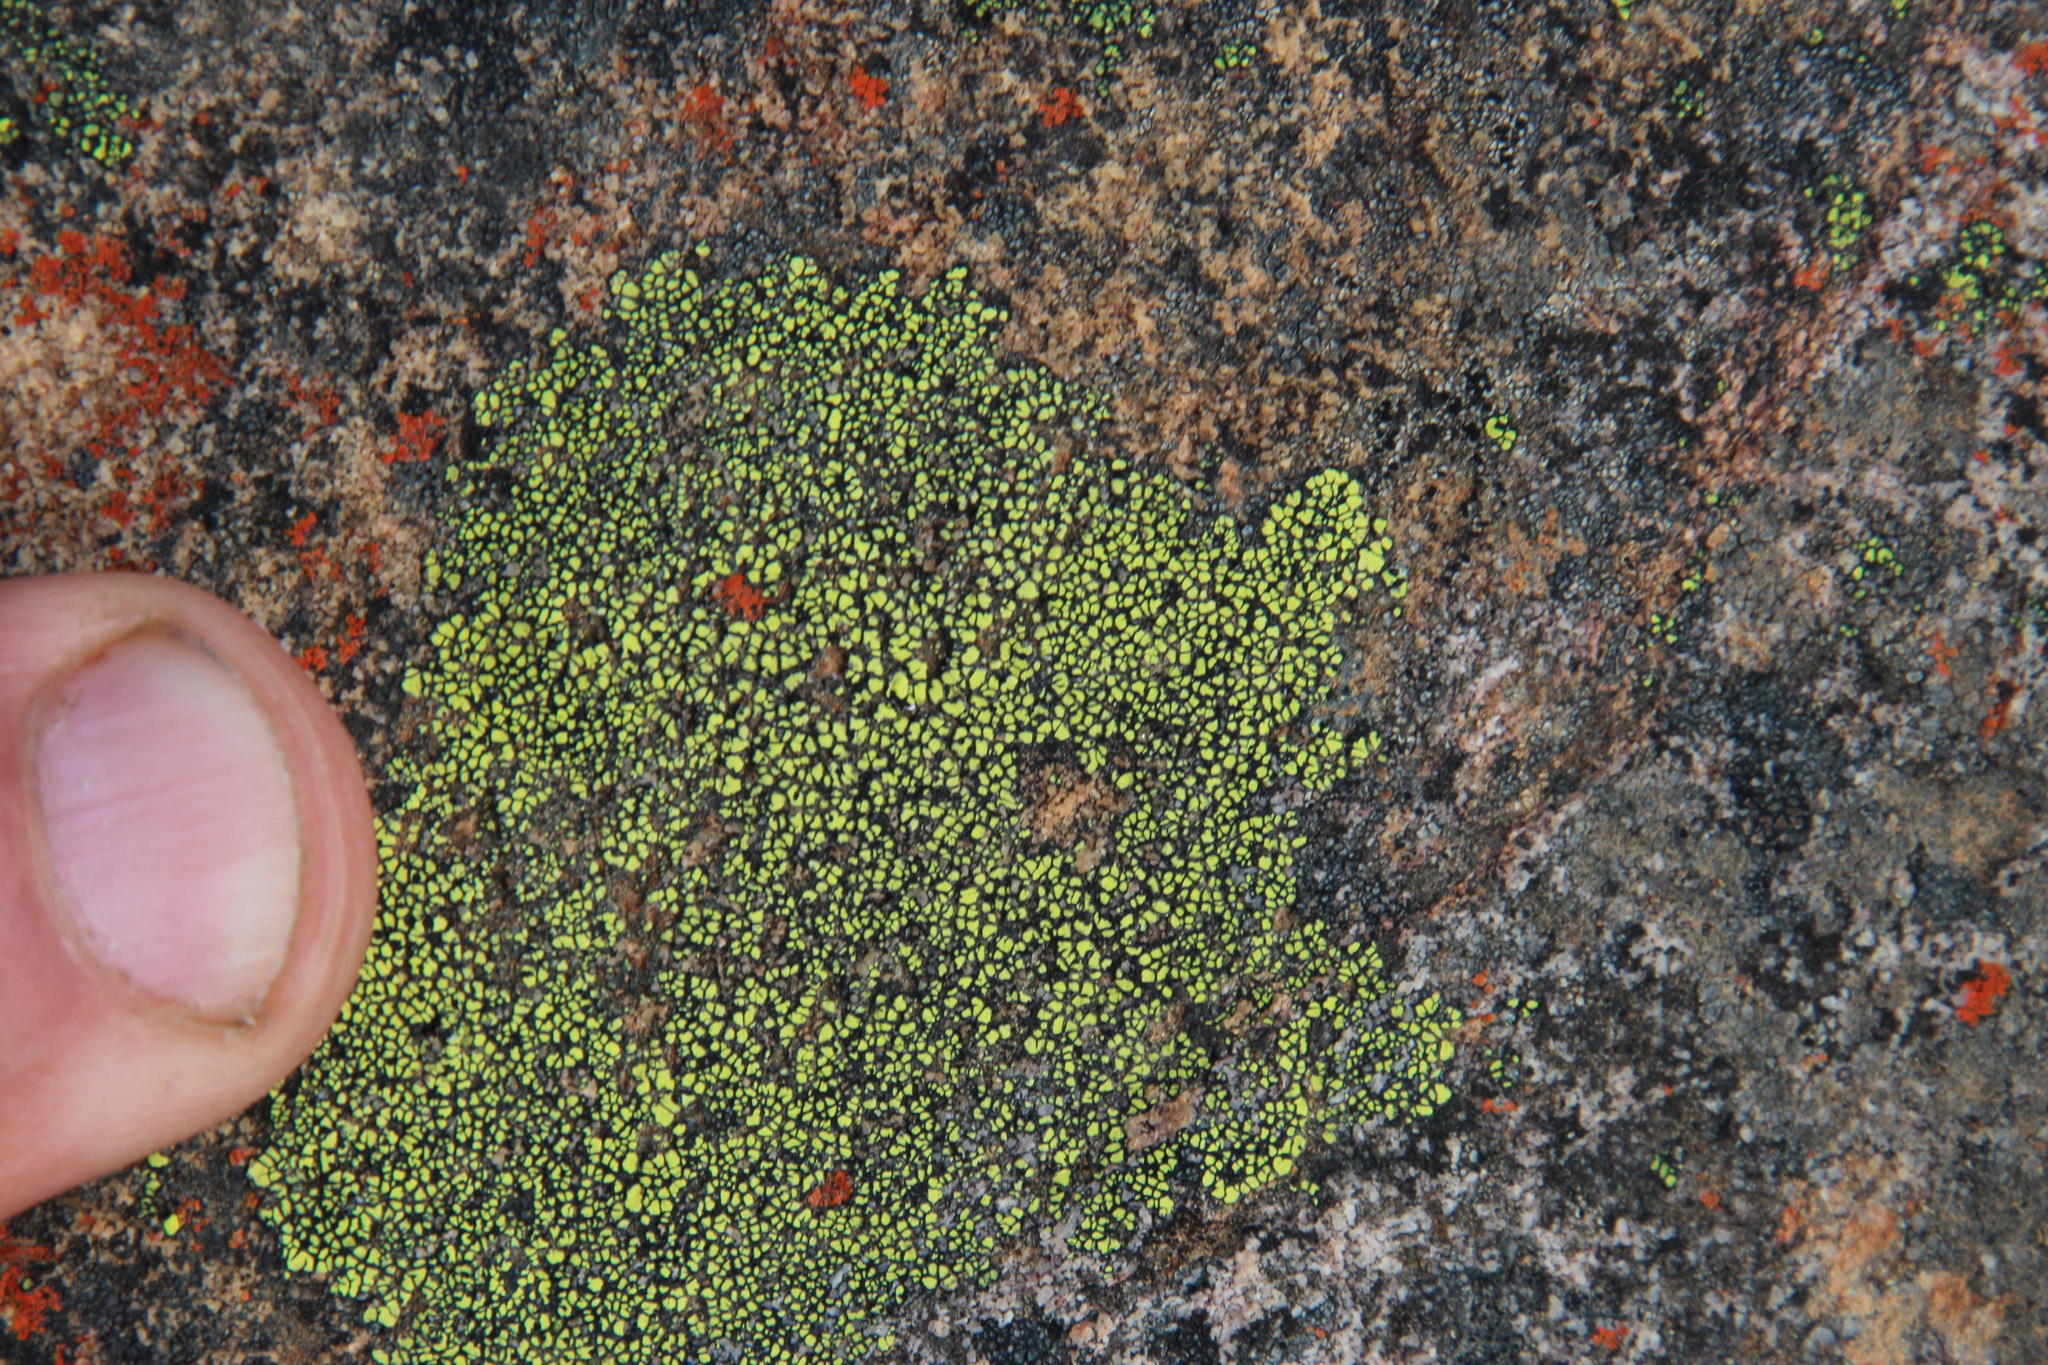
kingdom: Fungi
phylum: Ascomycota
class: Lecanoromycetes
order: Rhizocarpales
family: Rhizocarpaceae
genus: Rhizocarpon
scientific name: Rhizocarpon lecanorinum
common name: Crescent map lichen
